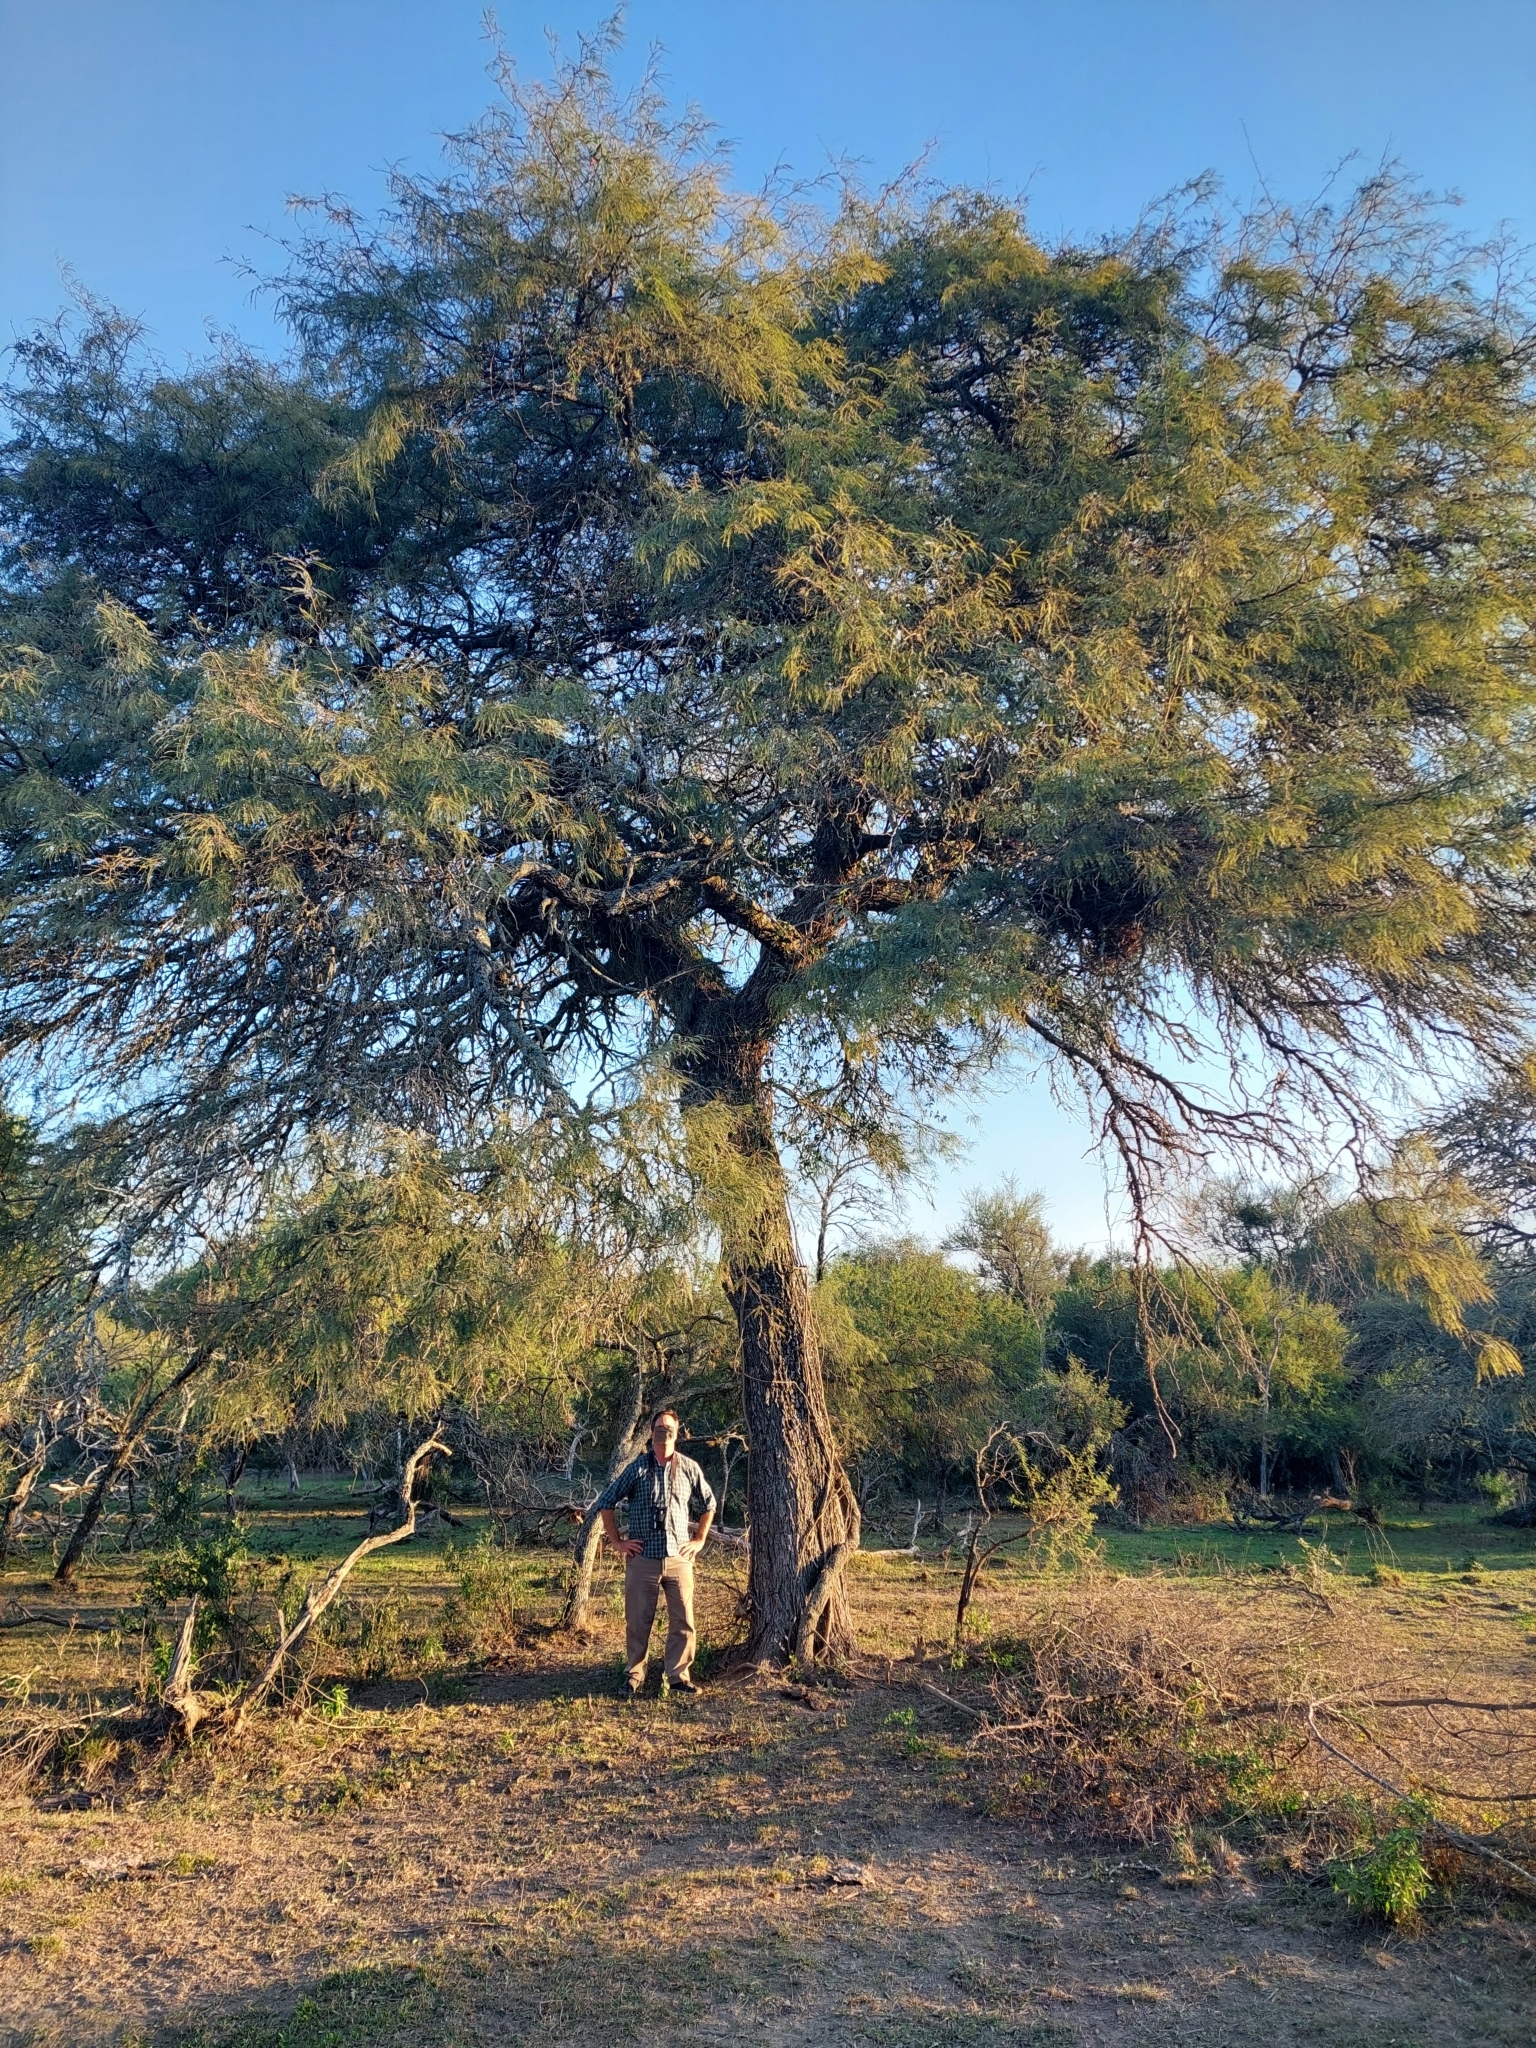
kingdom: Plantae
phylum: Tracheophyta
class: Magnoliopsida
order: Fabales
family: Fabaceae
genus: Prosopis
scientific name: Prosopis alba
